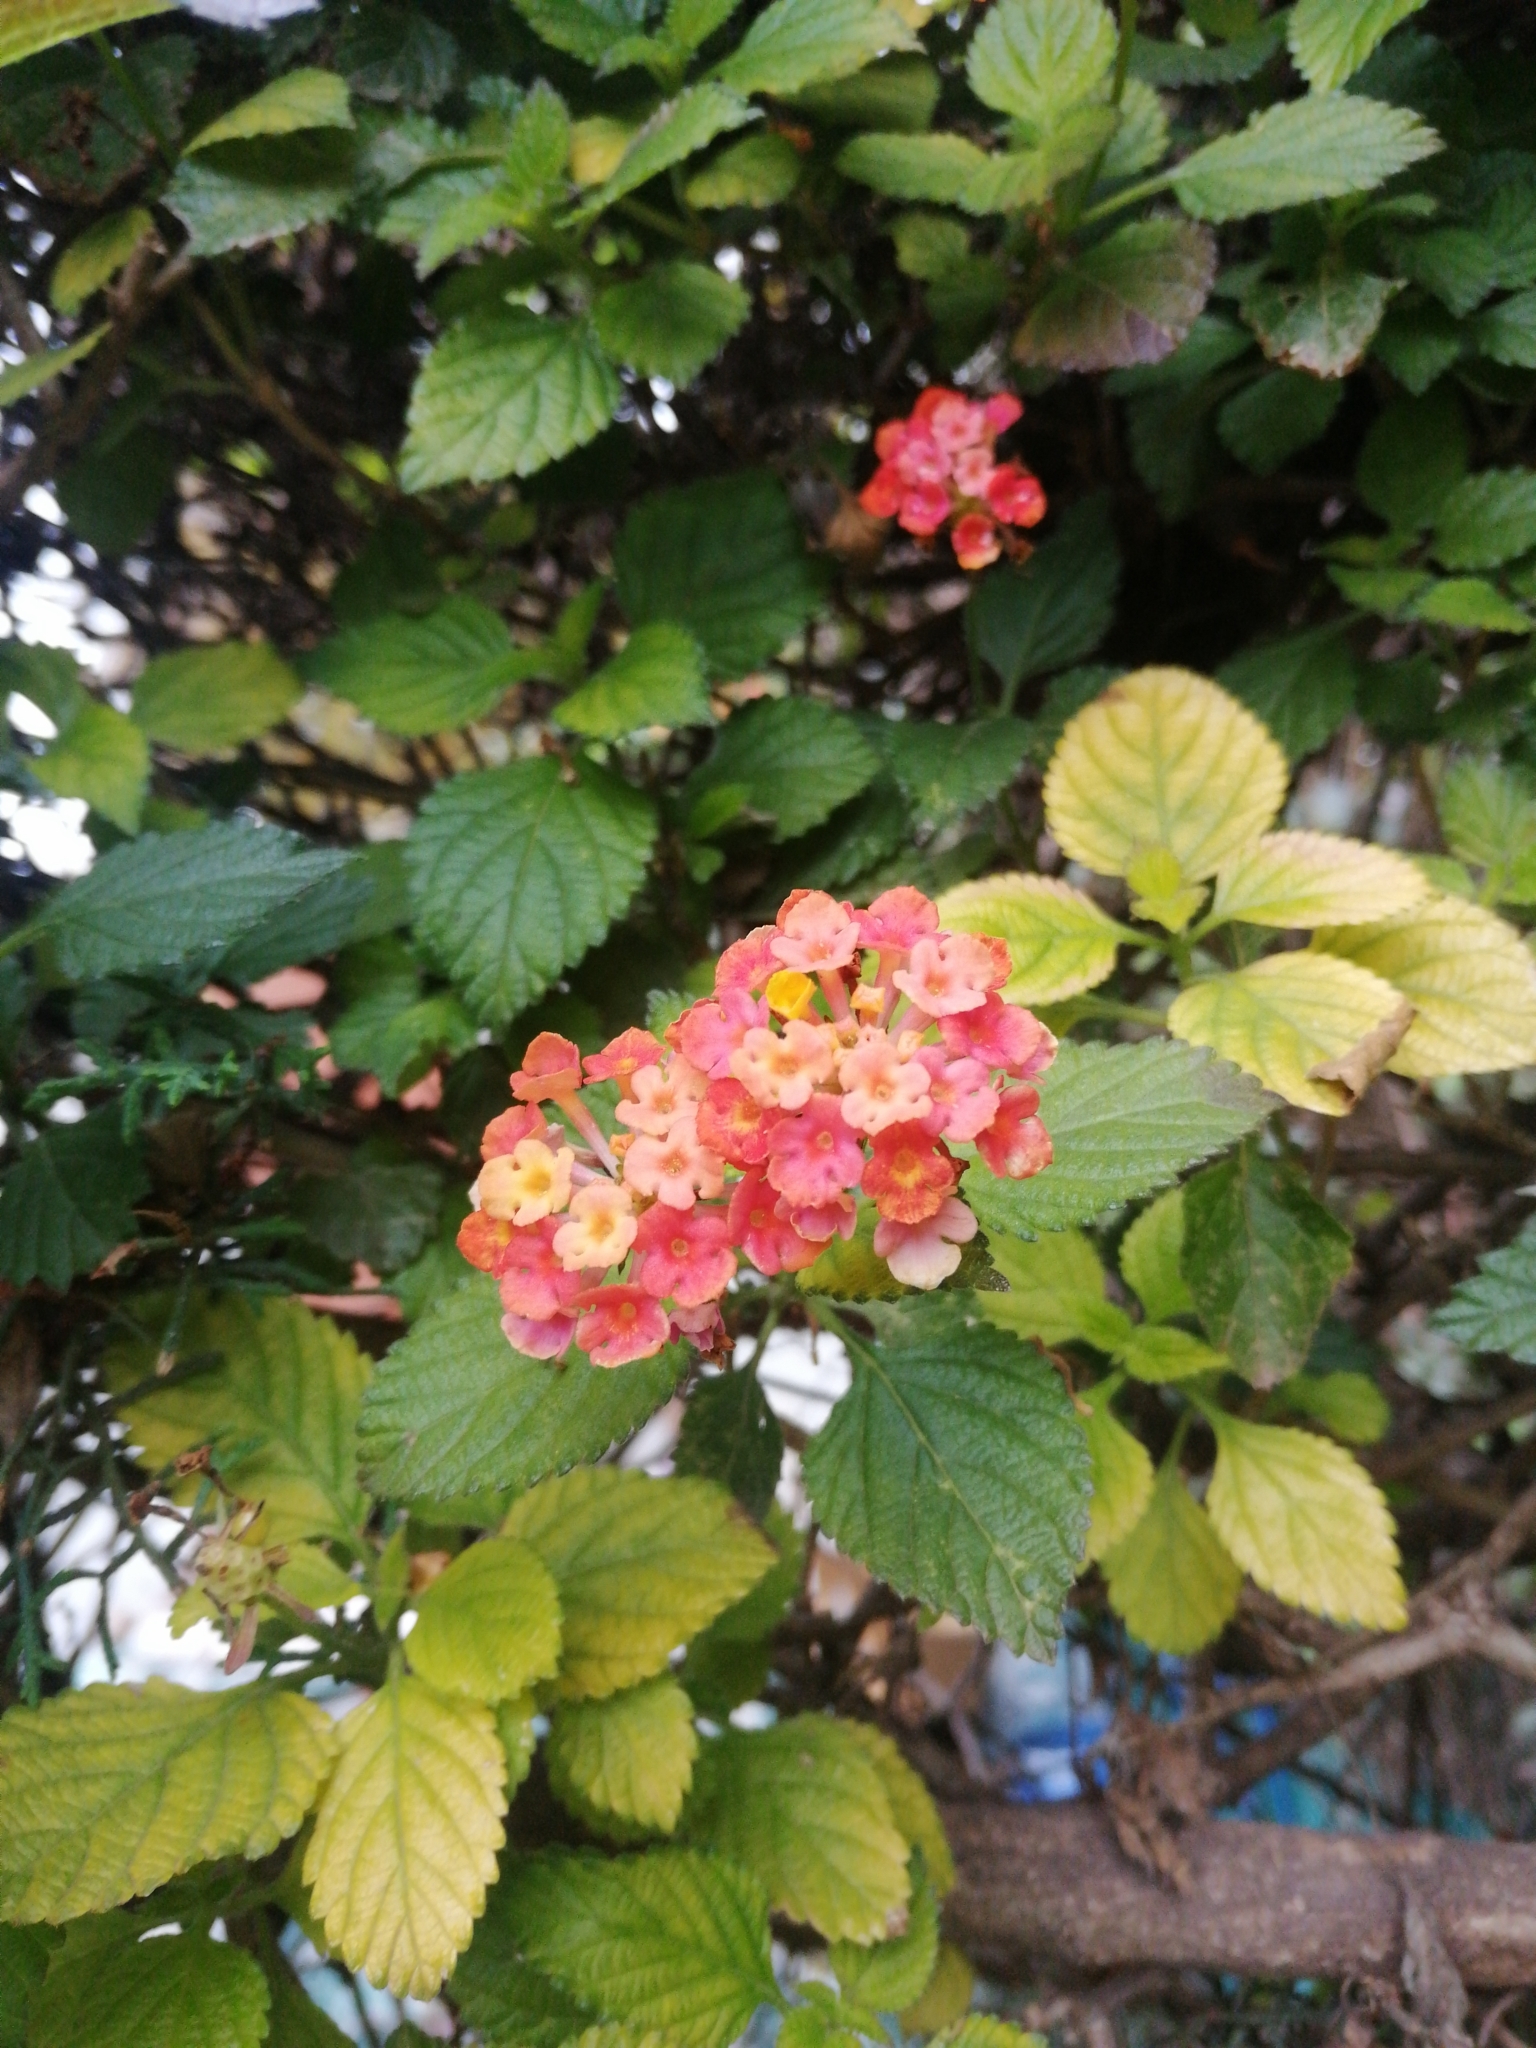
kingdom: Plantae
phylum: Tracheophyta
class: Magnoliopsida
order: Lamiales
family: Verbenaceae
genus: Lantana
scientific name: Lantana camara
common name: Lantana
